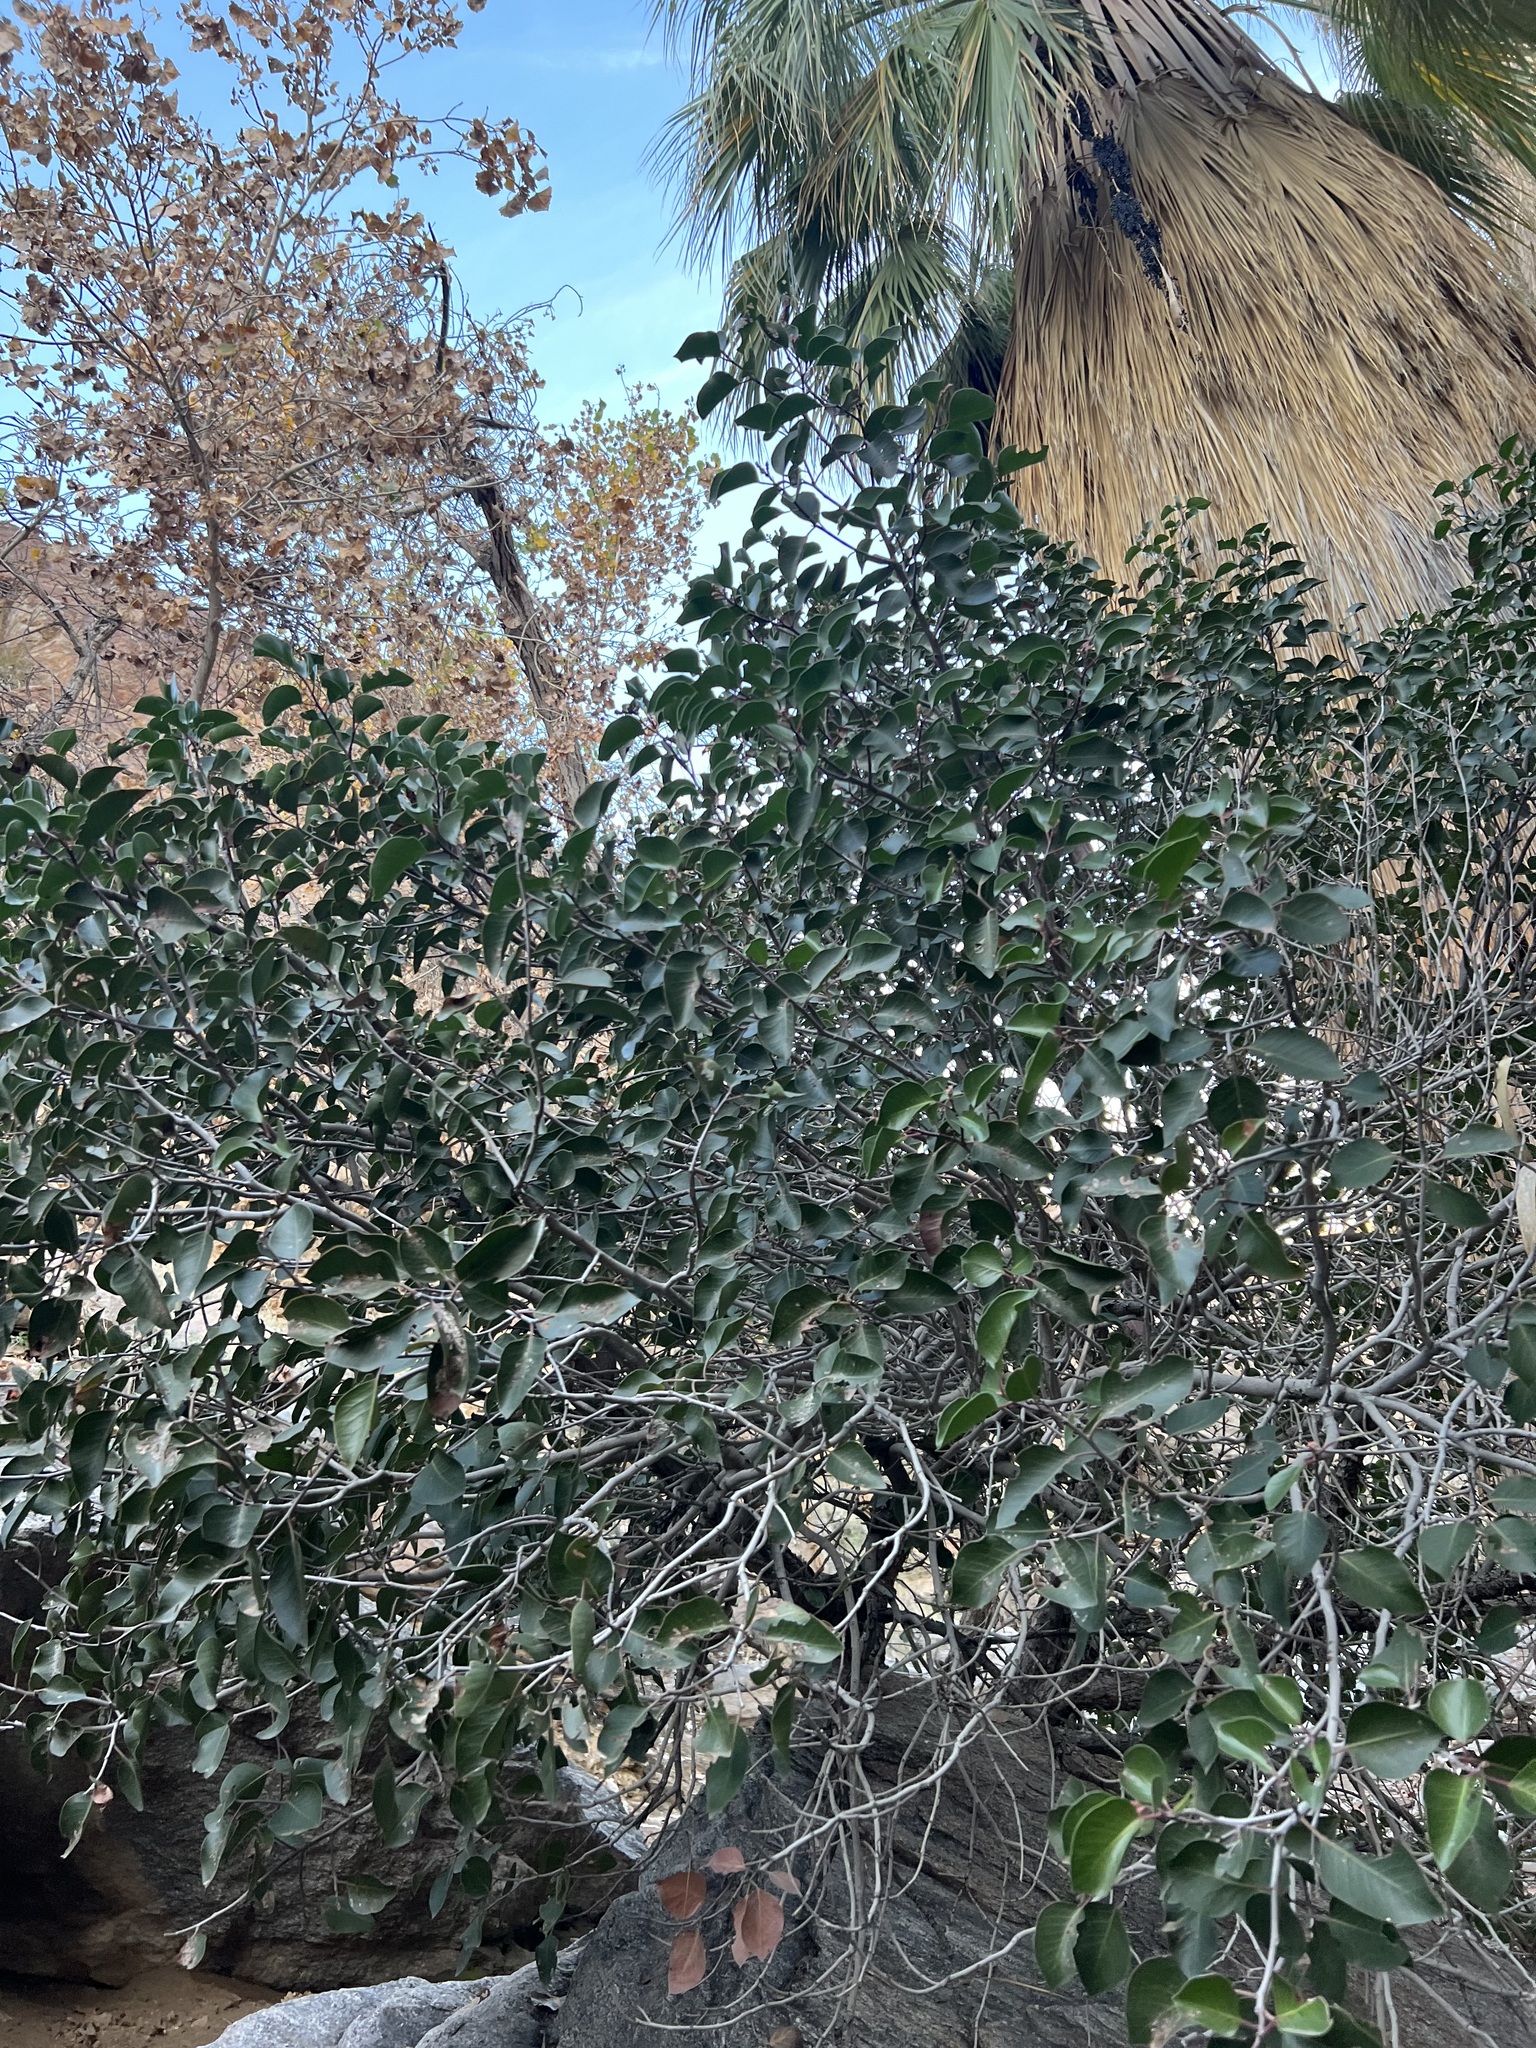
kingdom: Plantae
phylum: Tracheophyta
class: Magnoliopsida
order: Sapindales
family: Anacardiaceae
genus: Rhus
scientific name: Rhus ovata
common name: Sugar sumac
